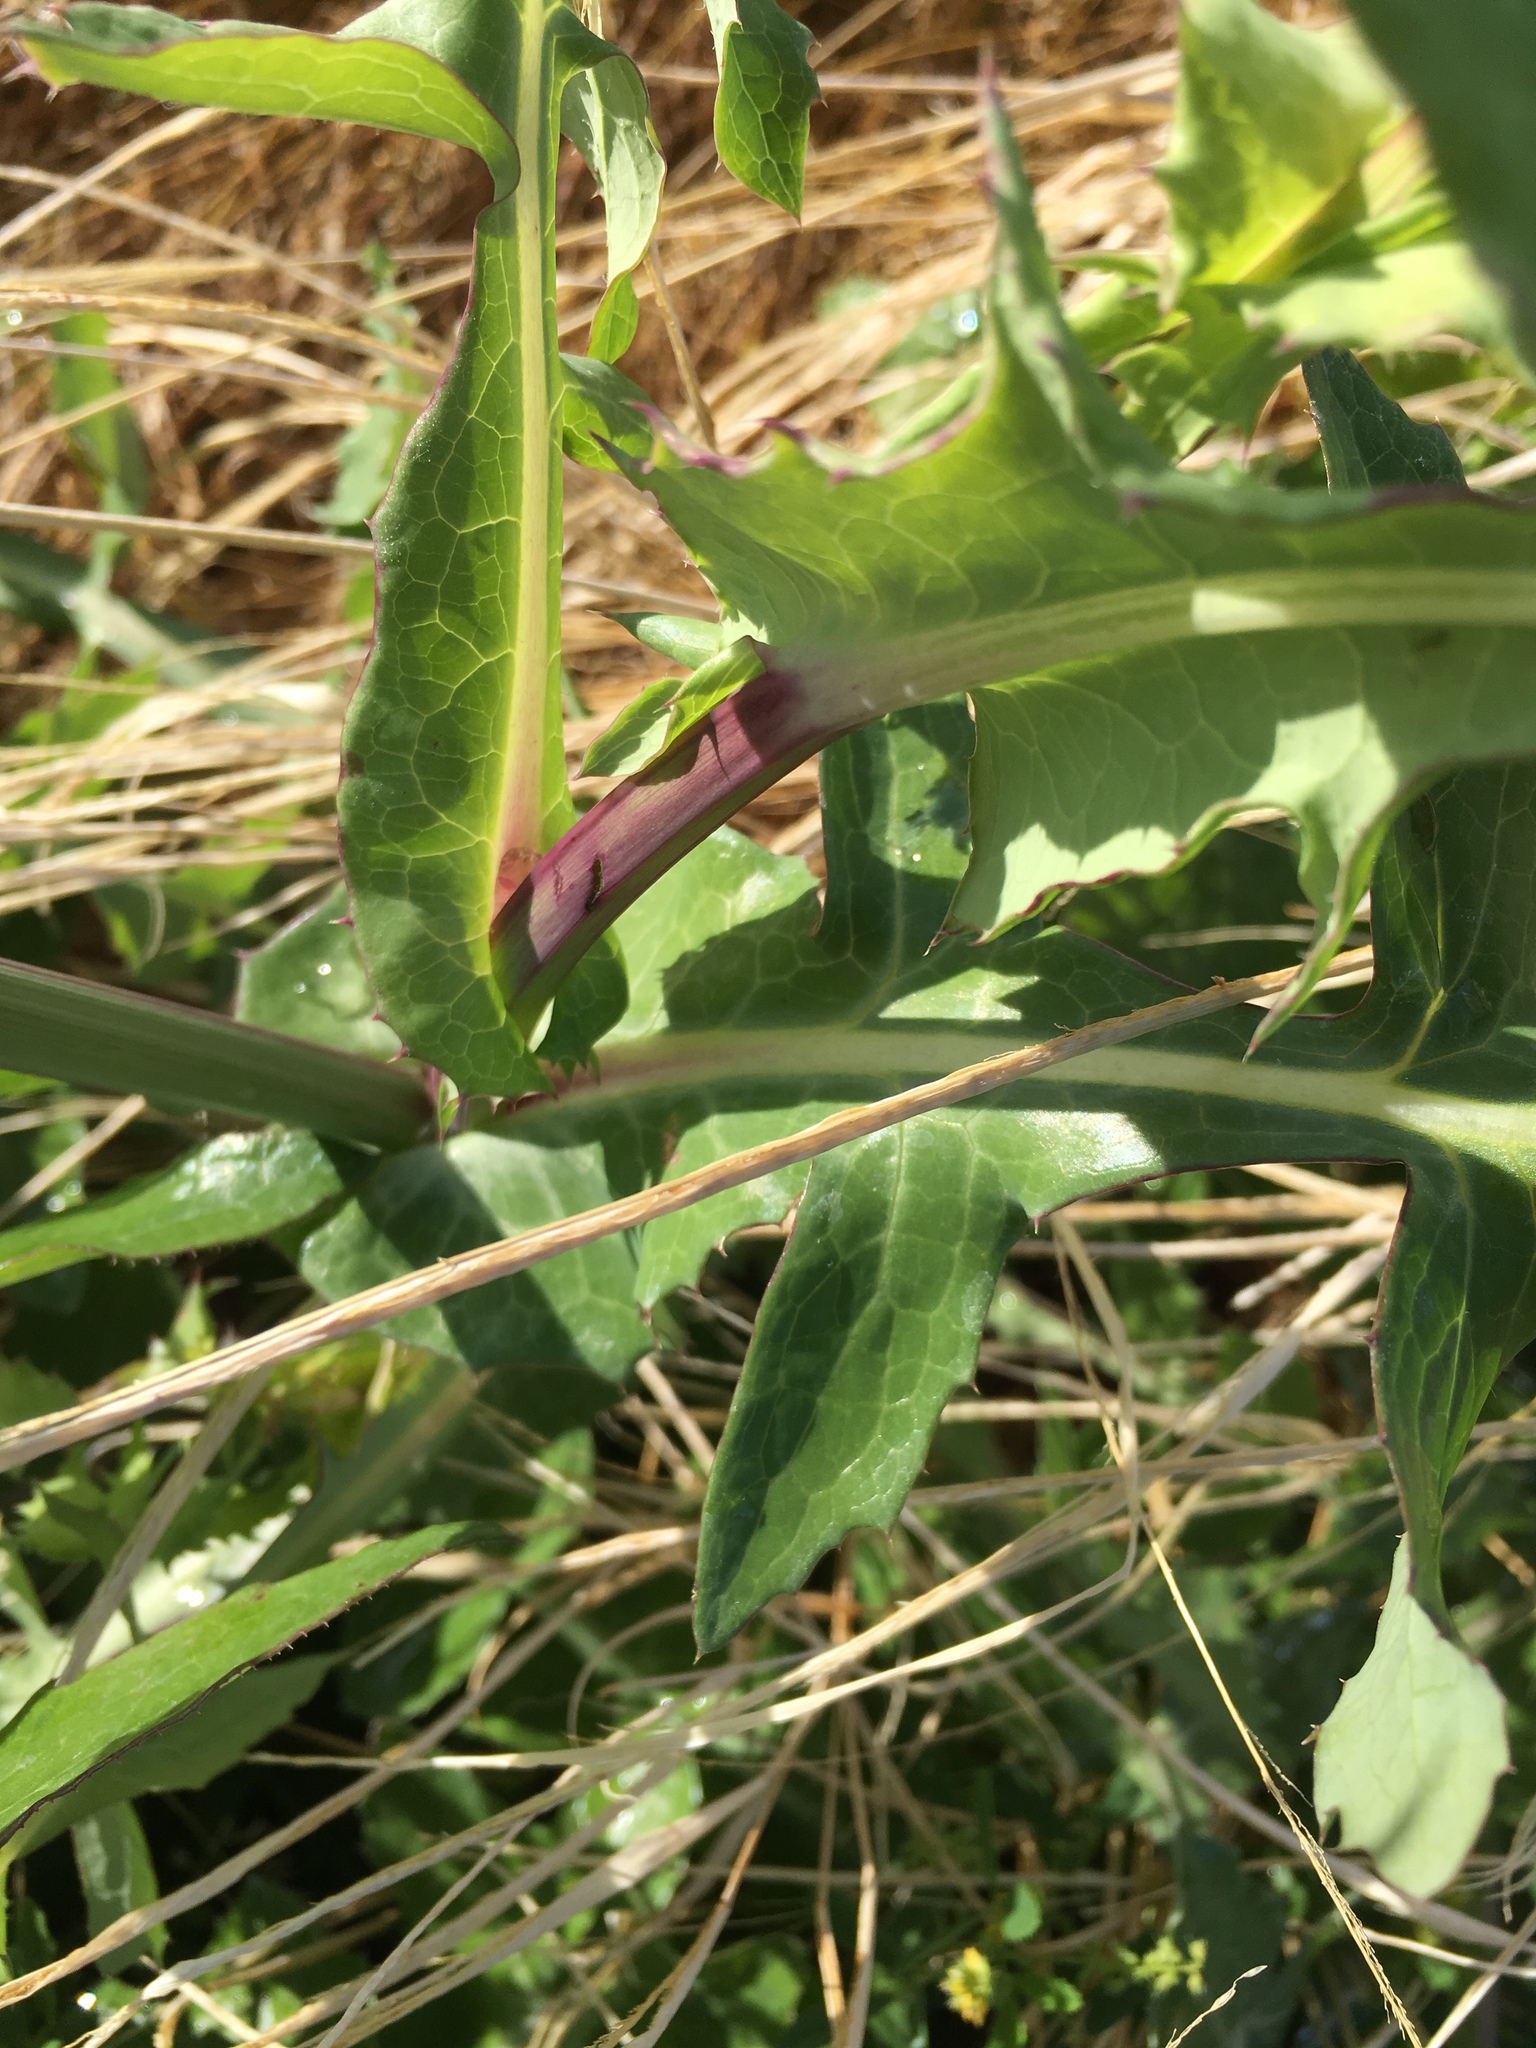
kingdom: Plantae
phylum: Tracheophyta
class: Magnoliopsida
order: Asterales
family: Asteraceae
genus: Sonchus
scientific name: Sonchus oleraceus
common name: Common sowthistle
